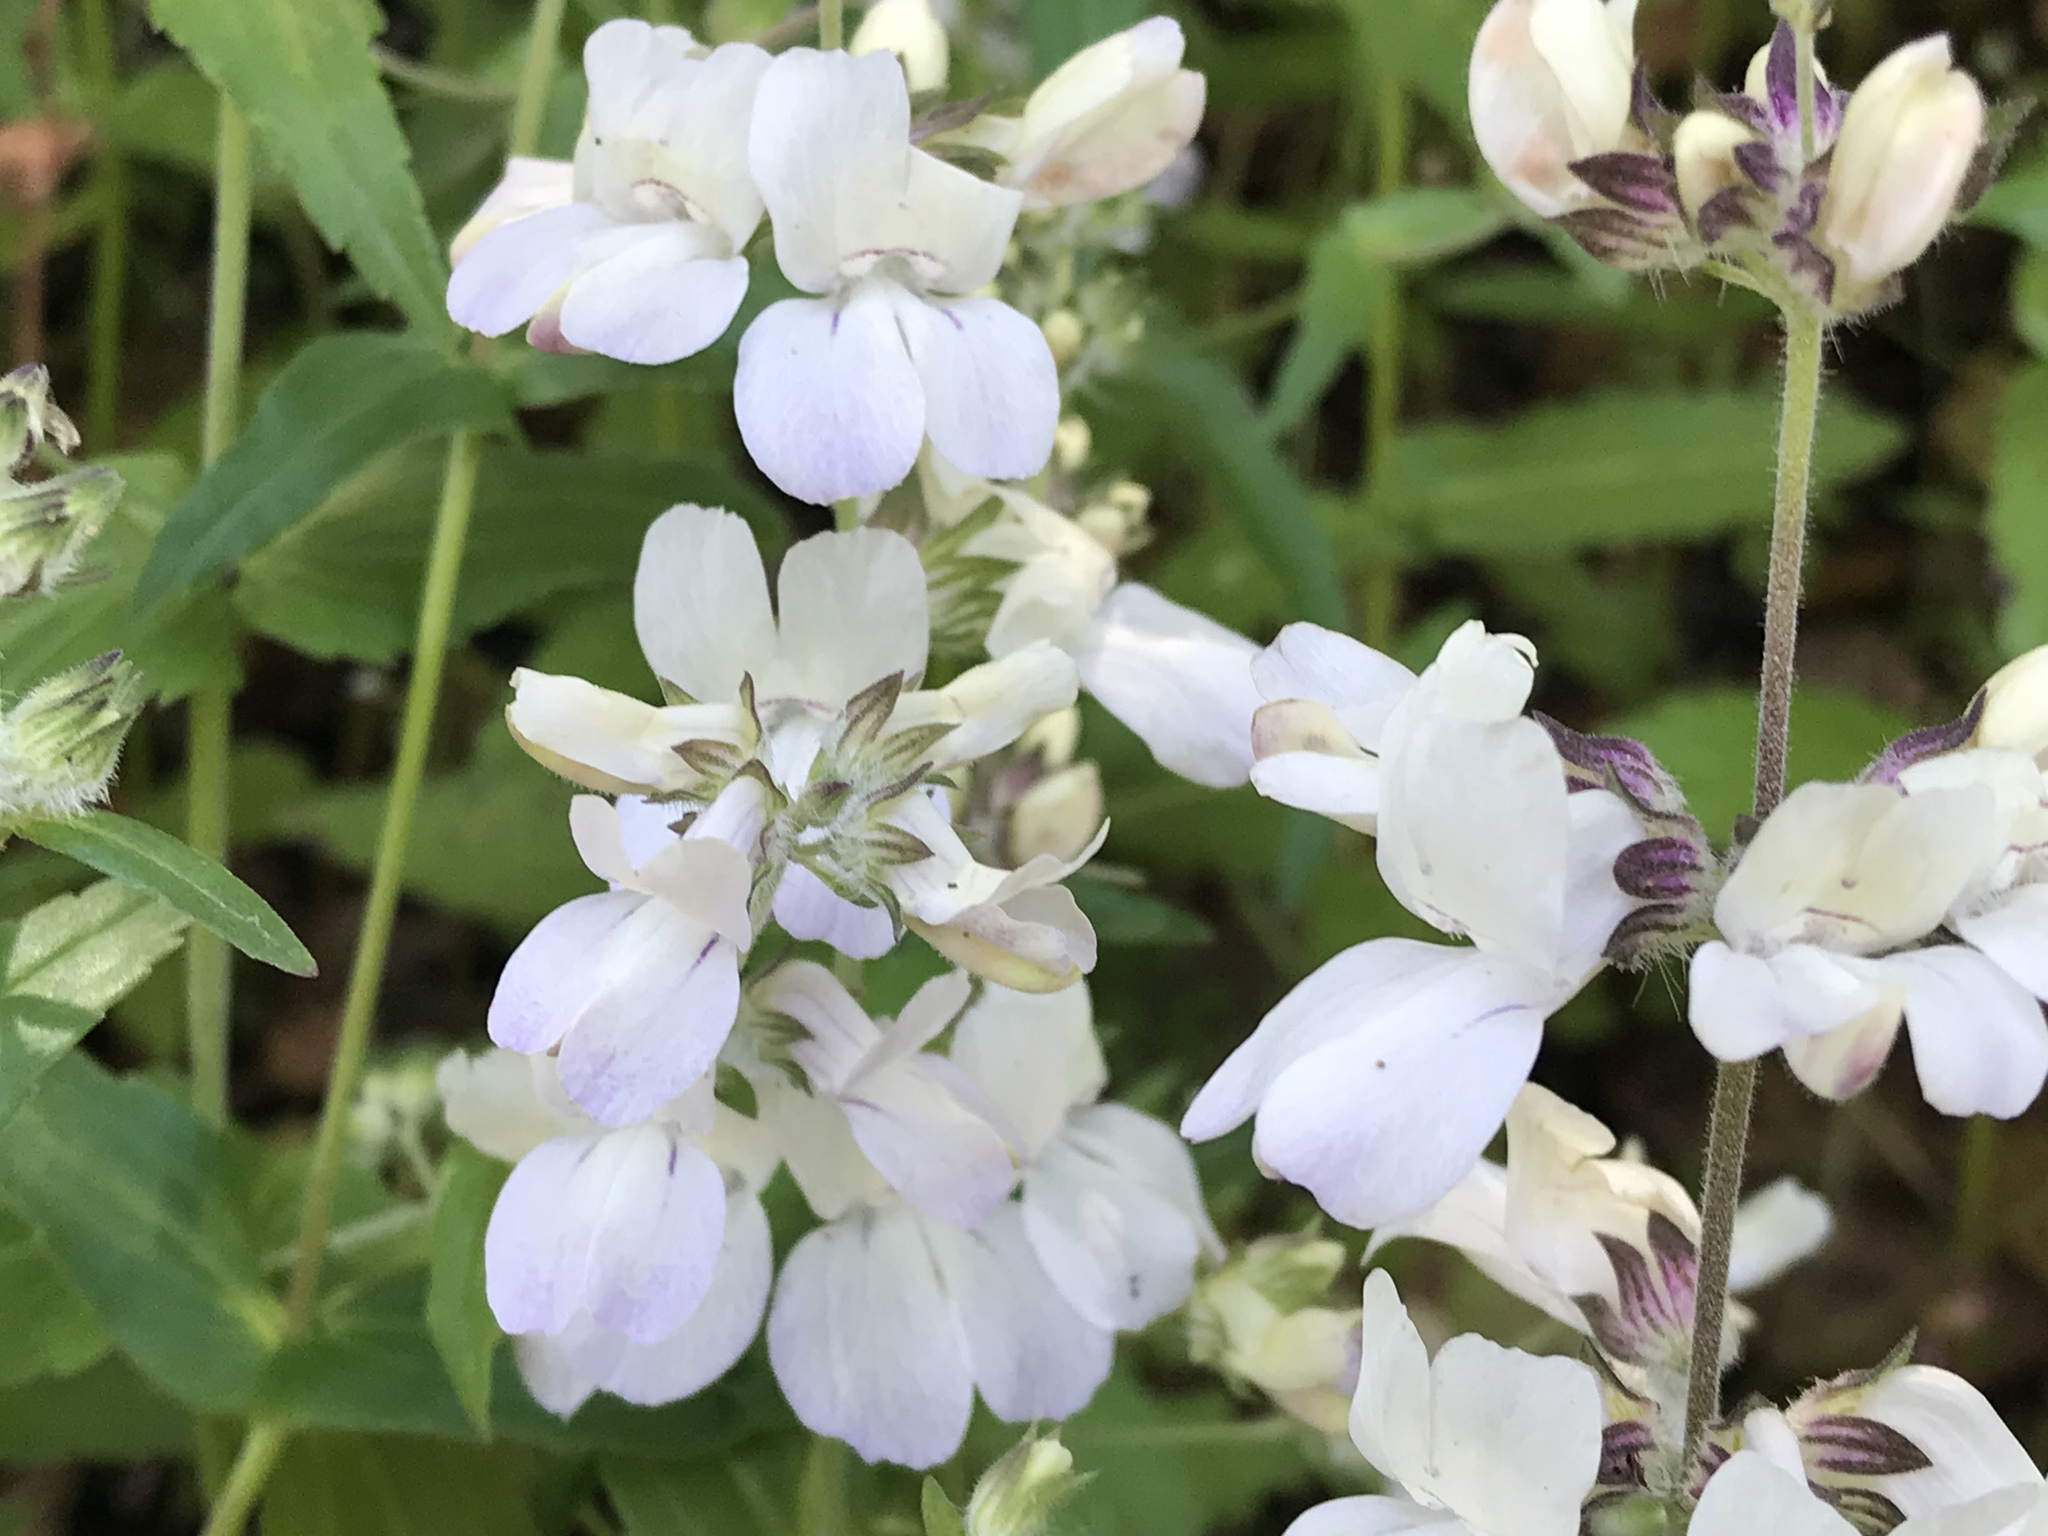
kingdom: Plantae
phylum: Tracheophyta
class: Magnoliopsida
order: Lamiales
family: Plantaginaceae
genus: Collinsia
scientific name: Collinsia heterophylla
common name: Chinese-houses
